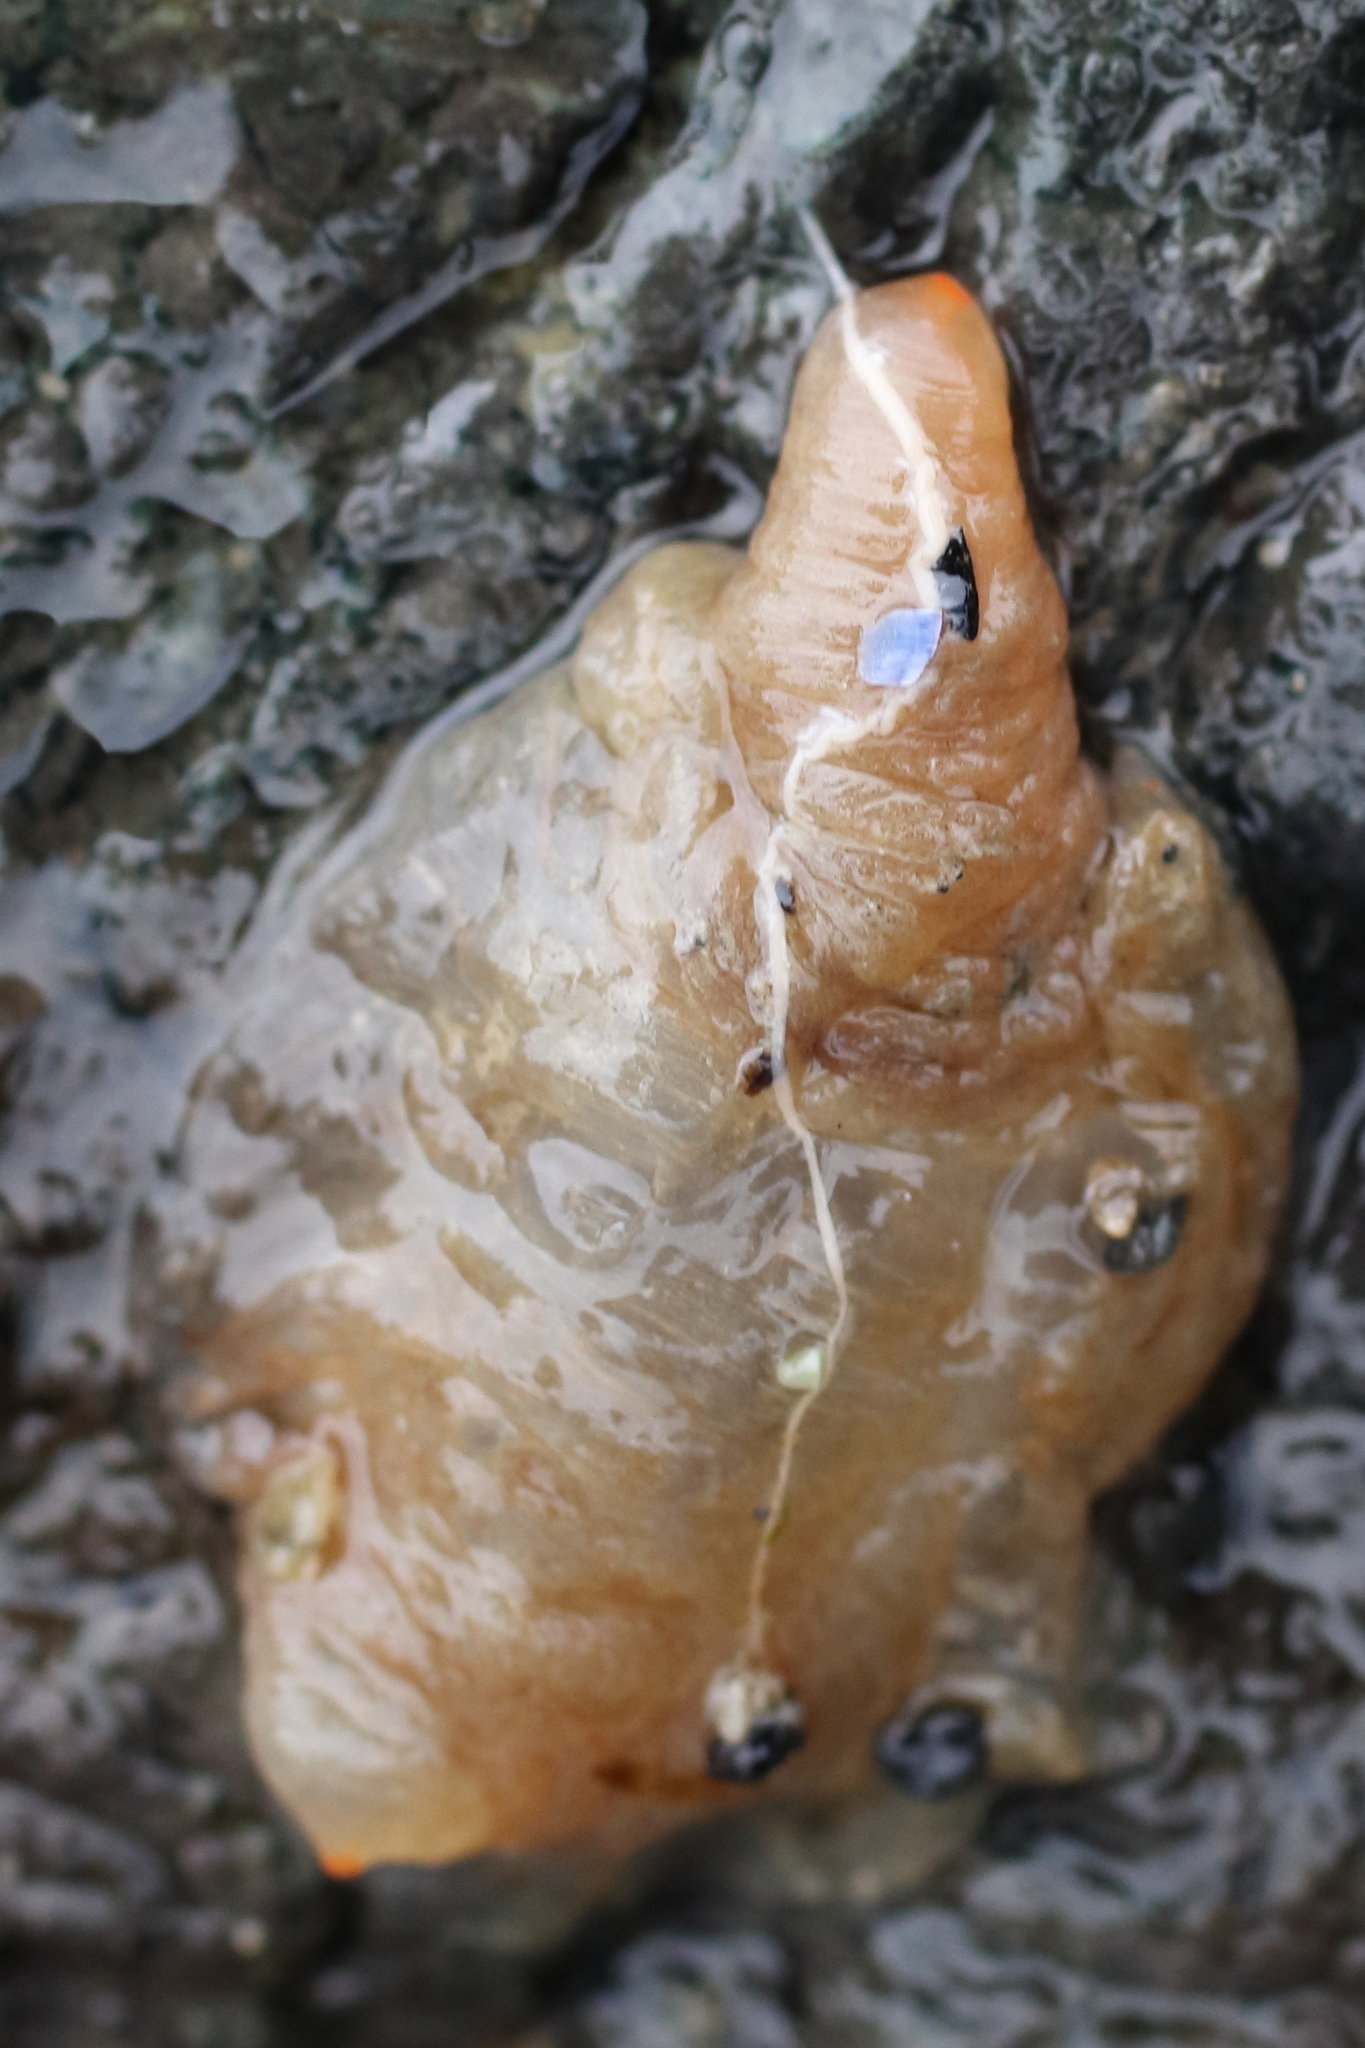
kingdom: Animalia
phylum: Chordata
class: Ascidiacea
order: Stolidobranchia
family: Pyuridae
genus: Pyura
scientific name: Pyura mirabilis
